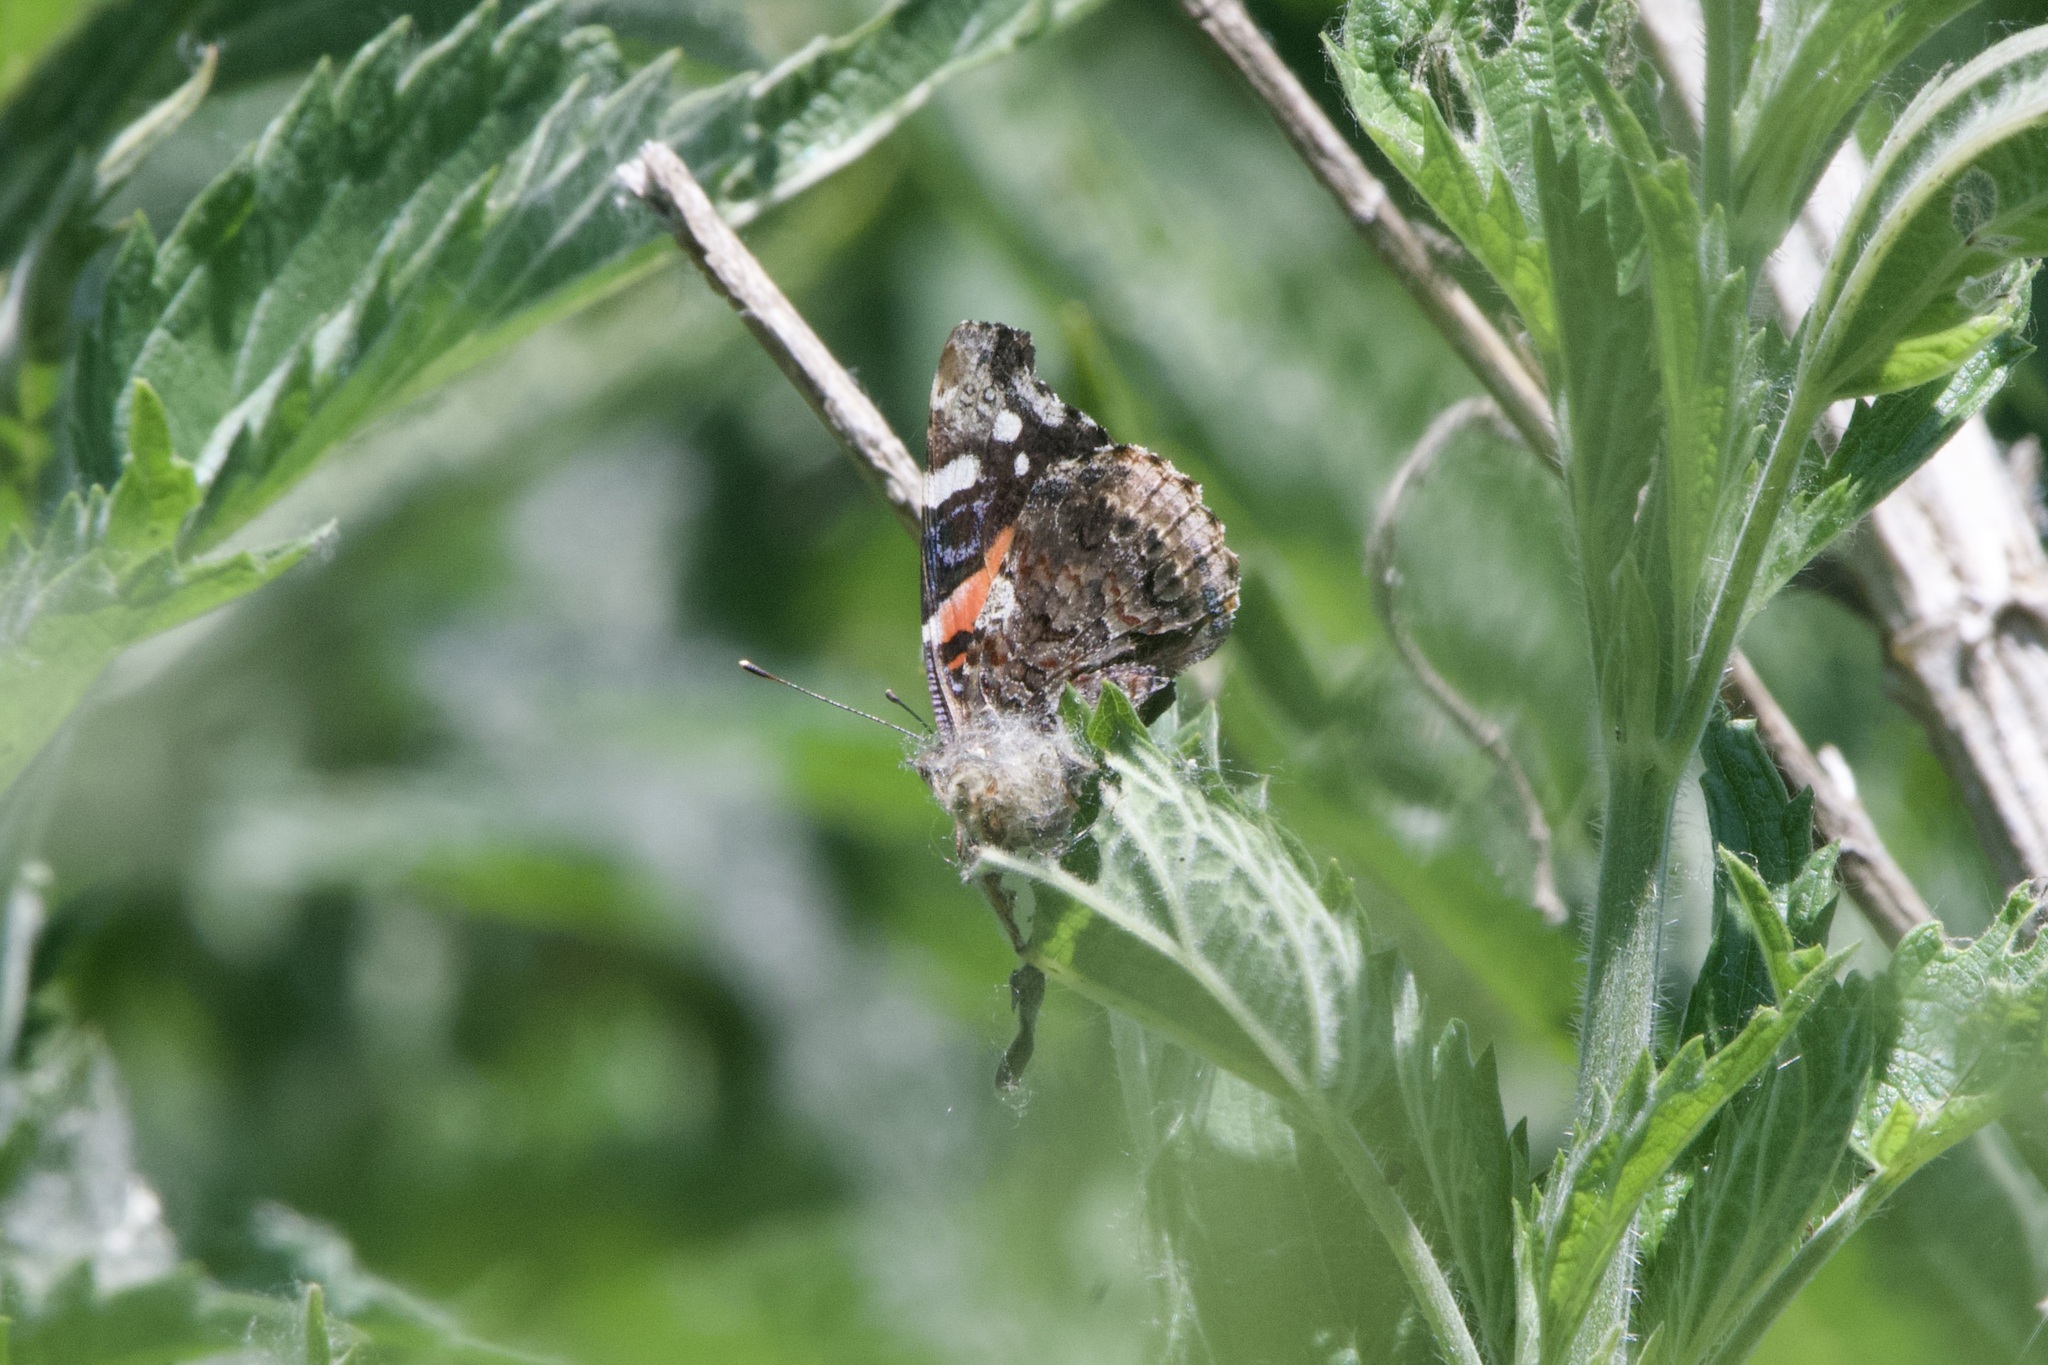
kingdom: Animalia
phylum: Arthropoda
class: Insecta
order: Lepidoptera
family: Nymphalidae
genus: Vanessa
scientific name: Vanessa atalanta
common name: Red admiral
